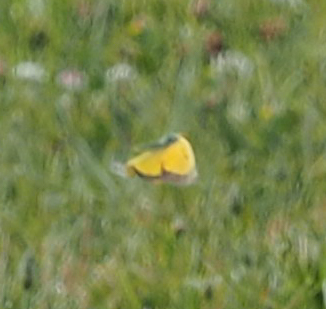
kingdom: Animalia
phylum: Arthropoda
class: Insecta
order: Lepidoptera
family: Pieridae
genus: Colias
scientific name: Colias eurytheme
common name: Alfalfa butterfly
